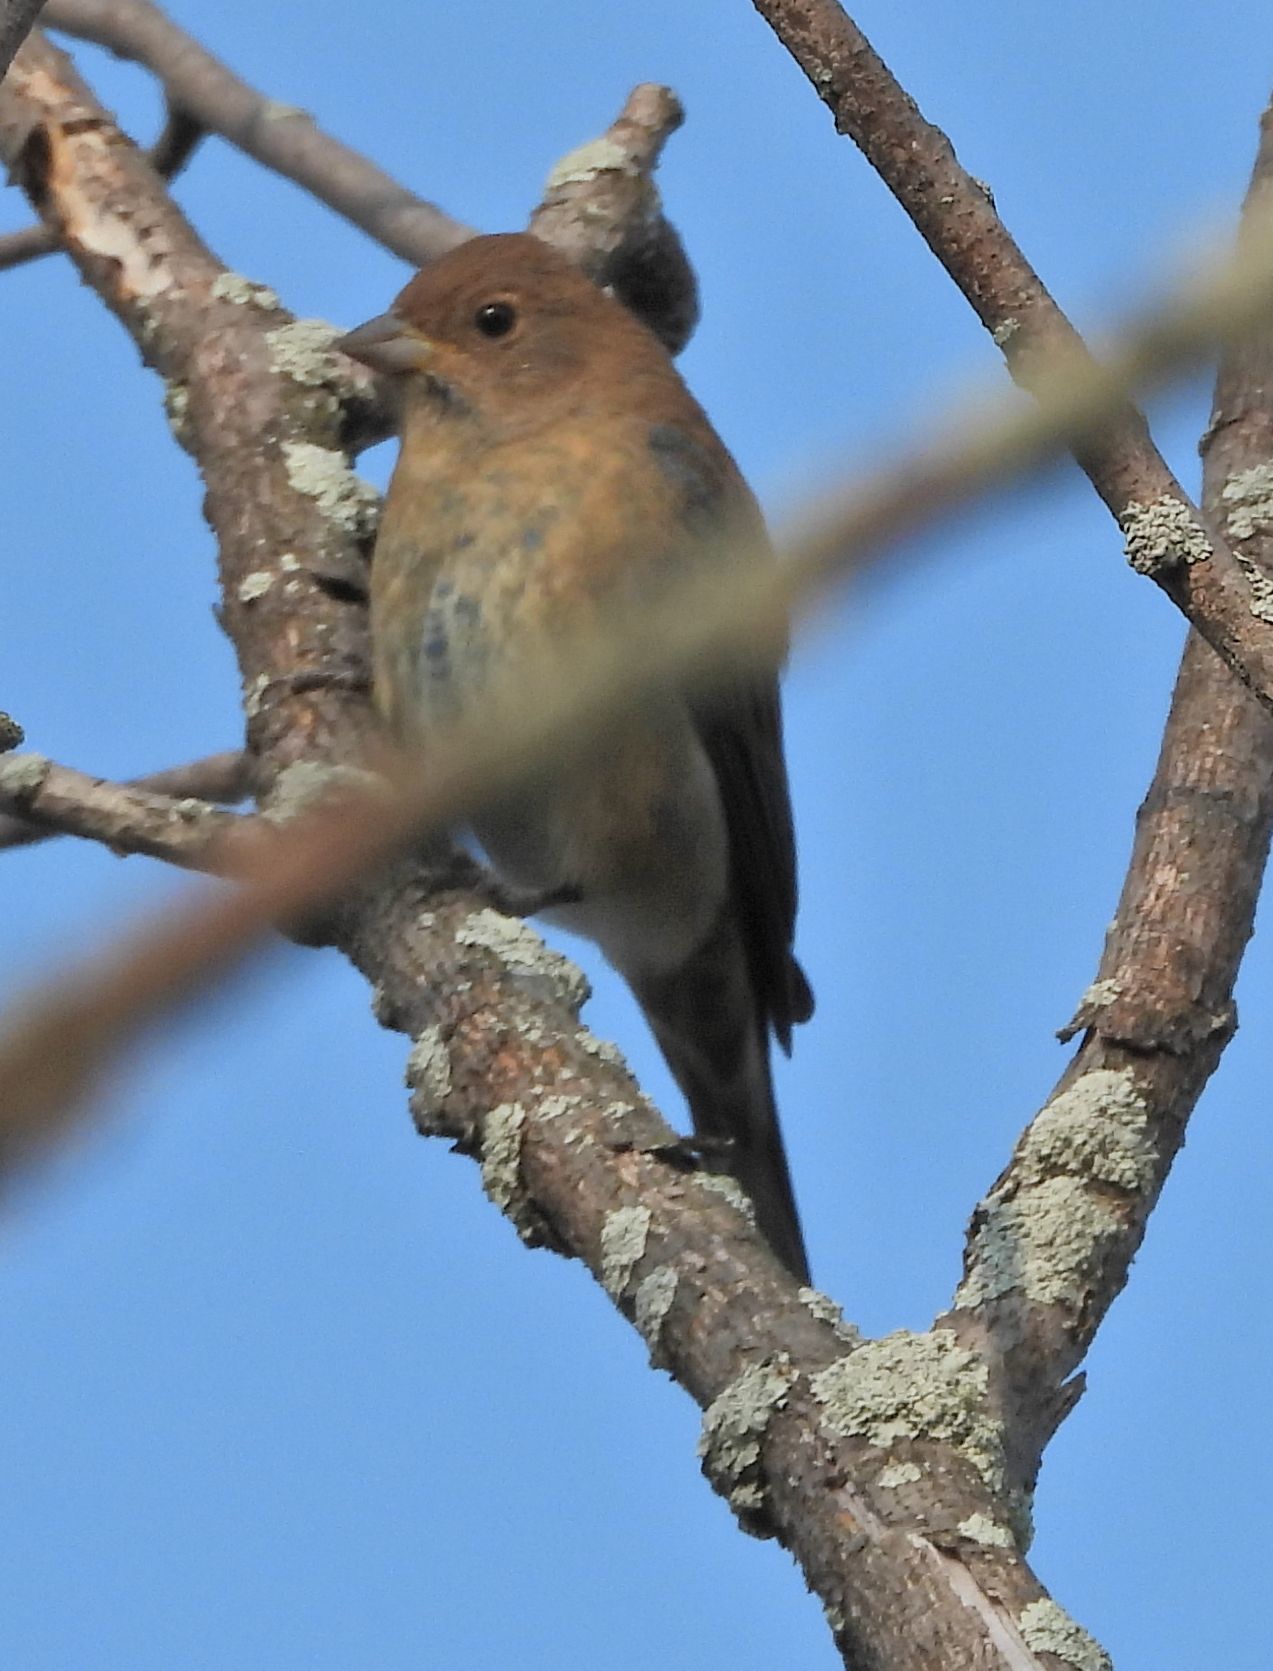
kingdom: Animalia
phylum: Chordata
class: Aves
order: Passeriformes
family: Cardinalidae
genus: Passerina
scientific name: Passerina cyanea
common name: Indigo bunting
